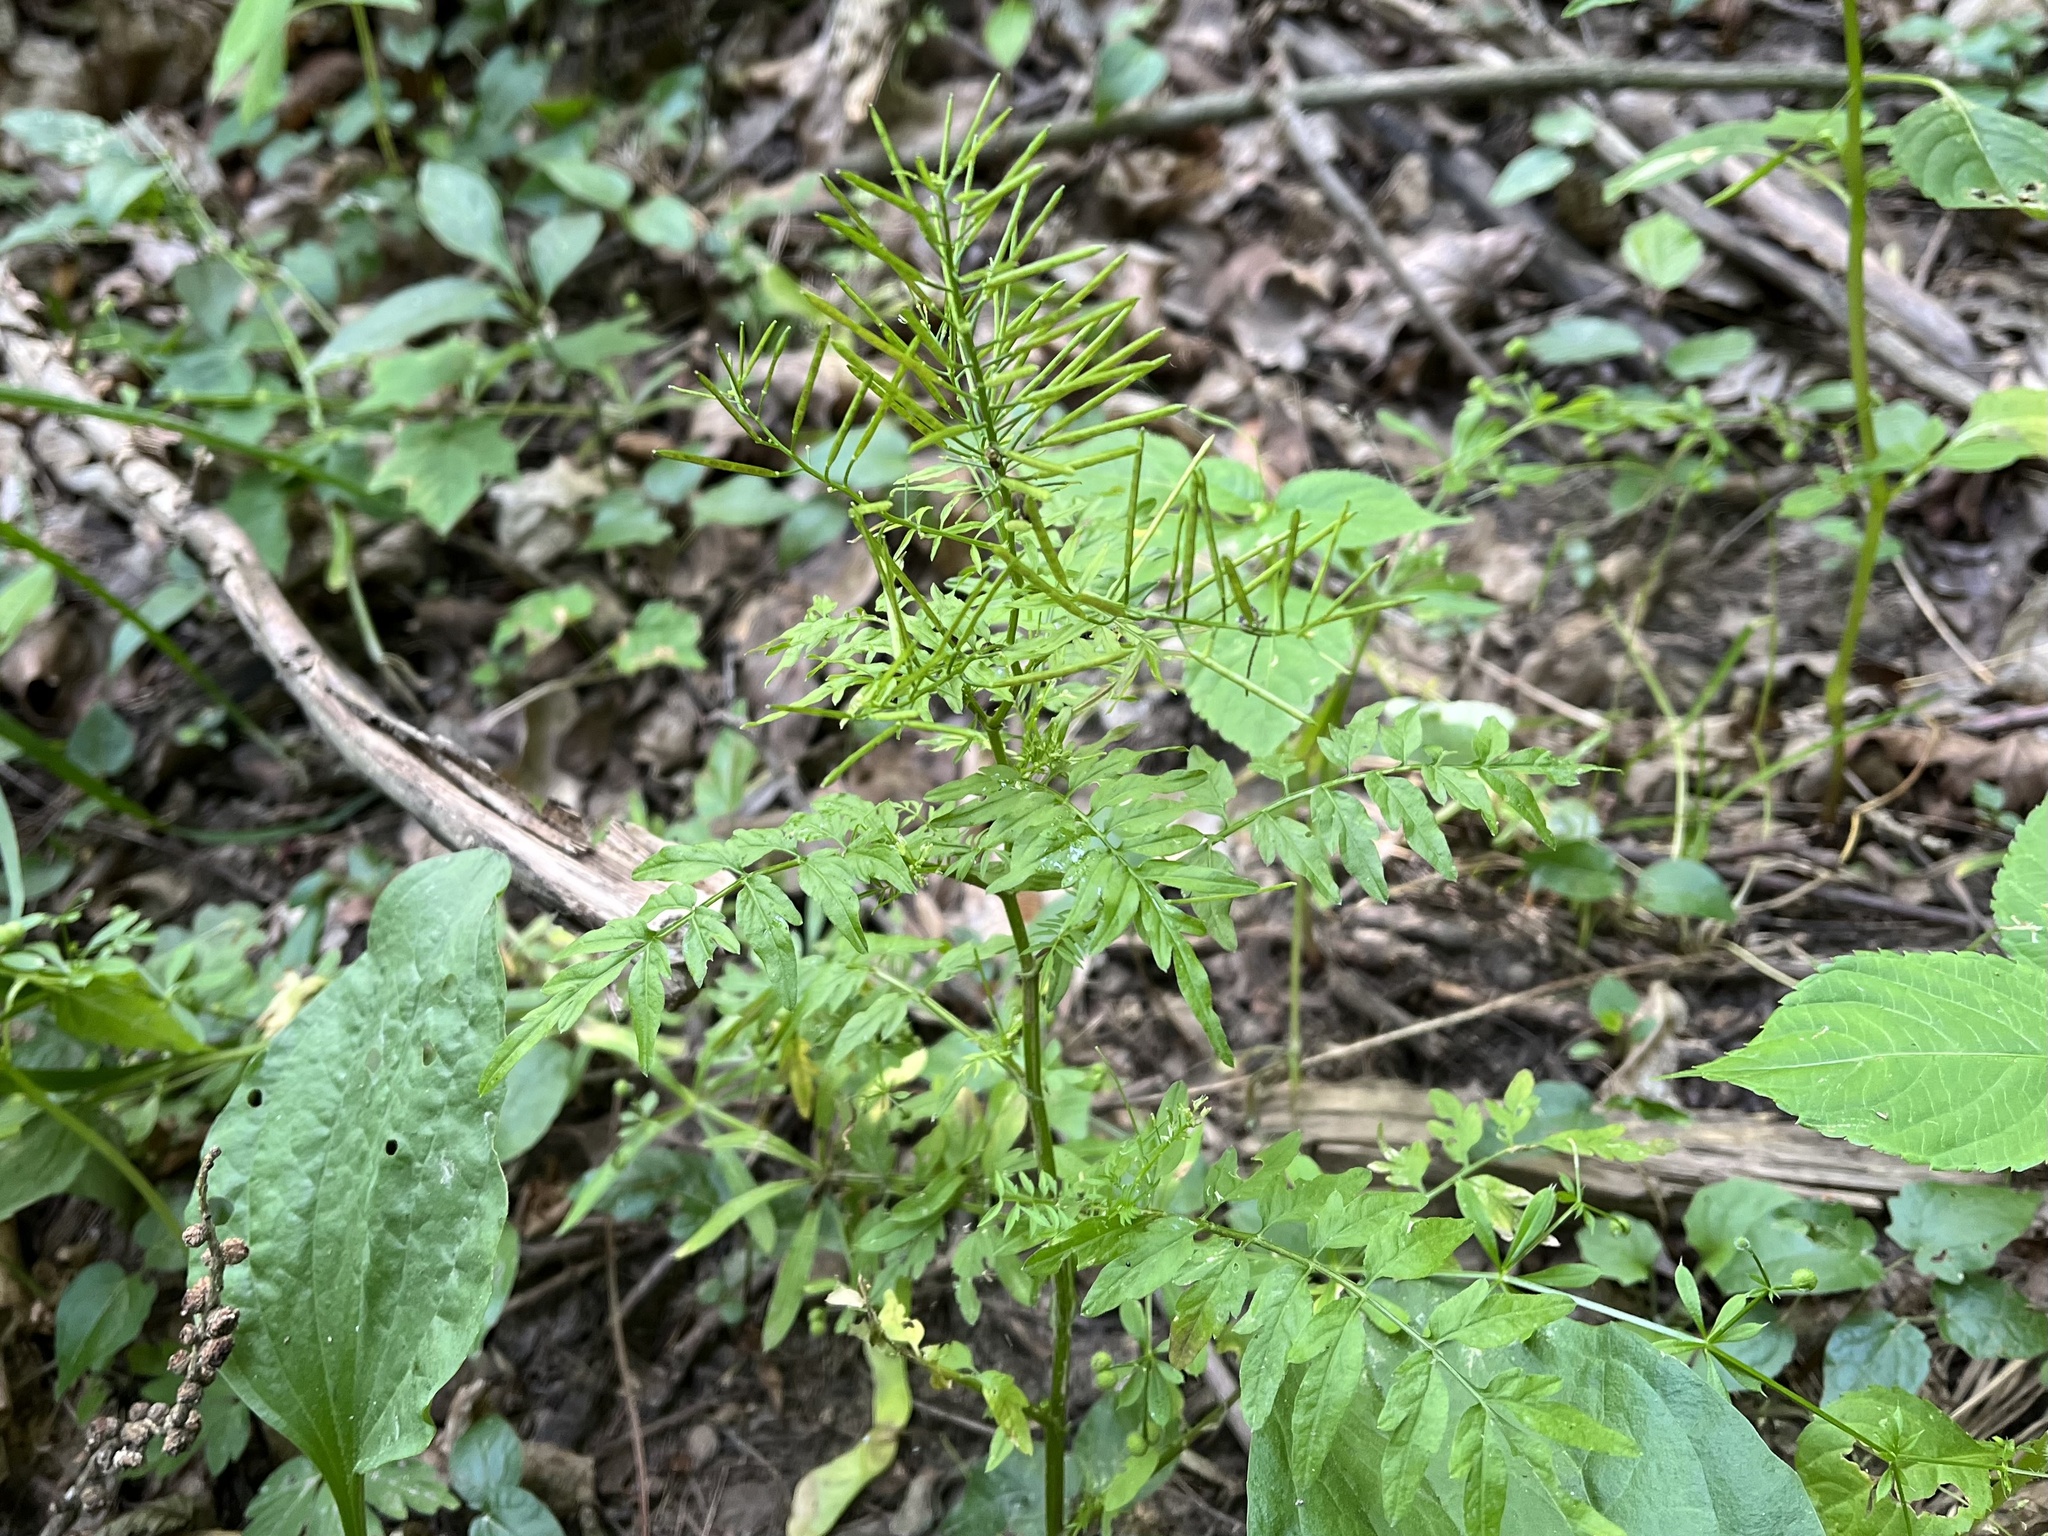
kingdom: Plantae
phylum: Tracheophyta
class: Magnoliopsida
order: Brassicales
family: Brassicaceae
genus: Cardamine
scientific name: Cardamine impatiens
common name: Narrow-leaved bitter-cress
